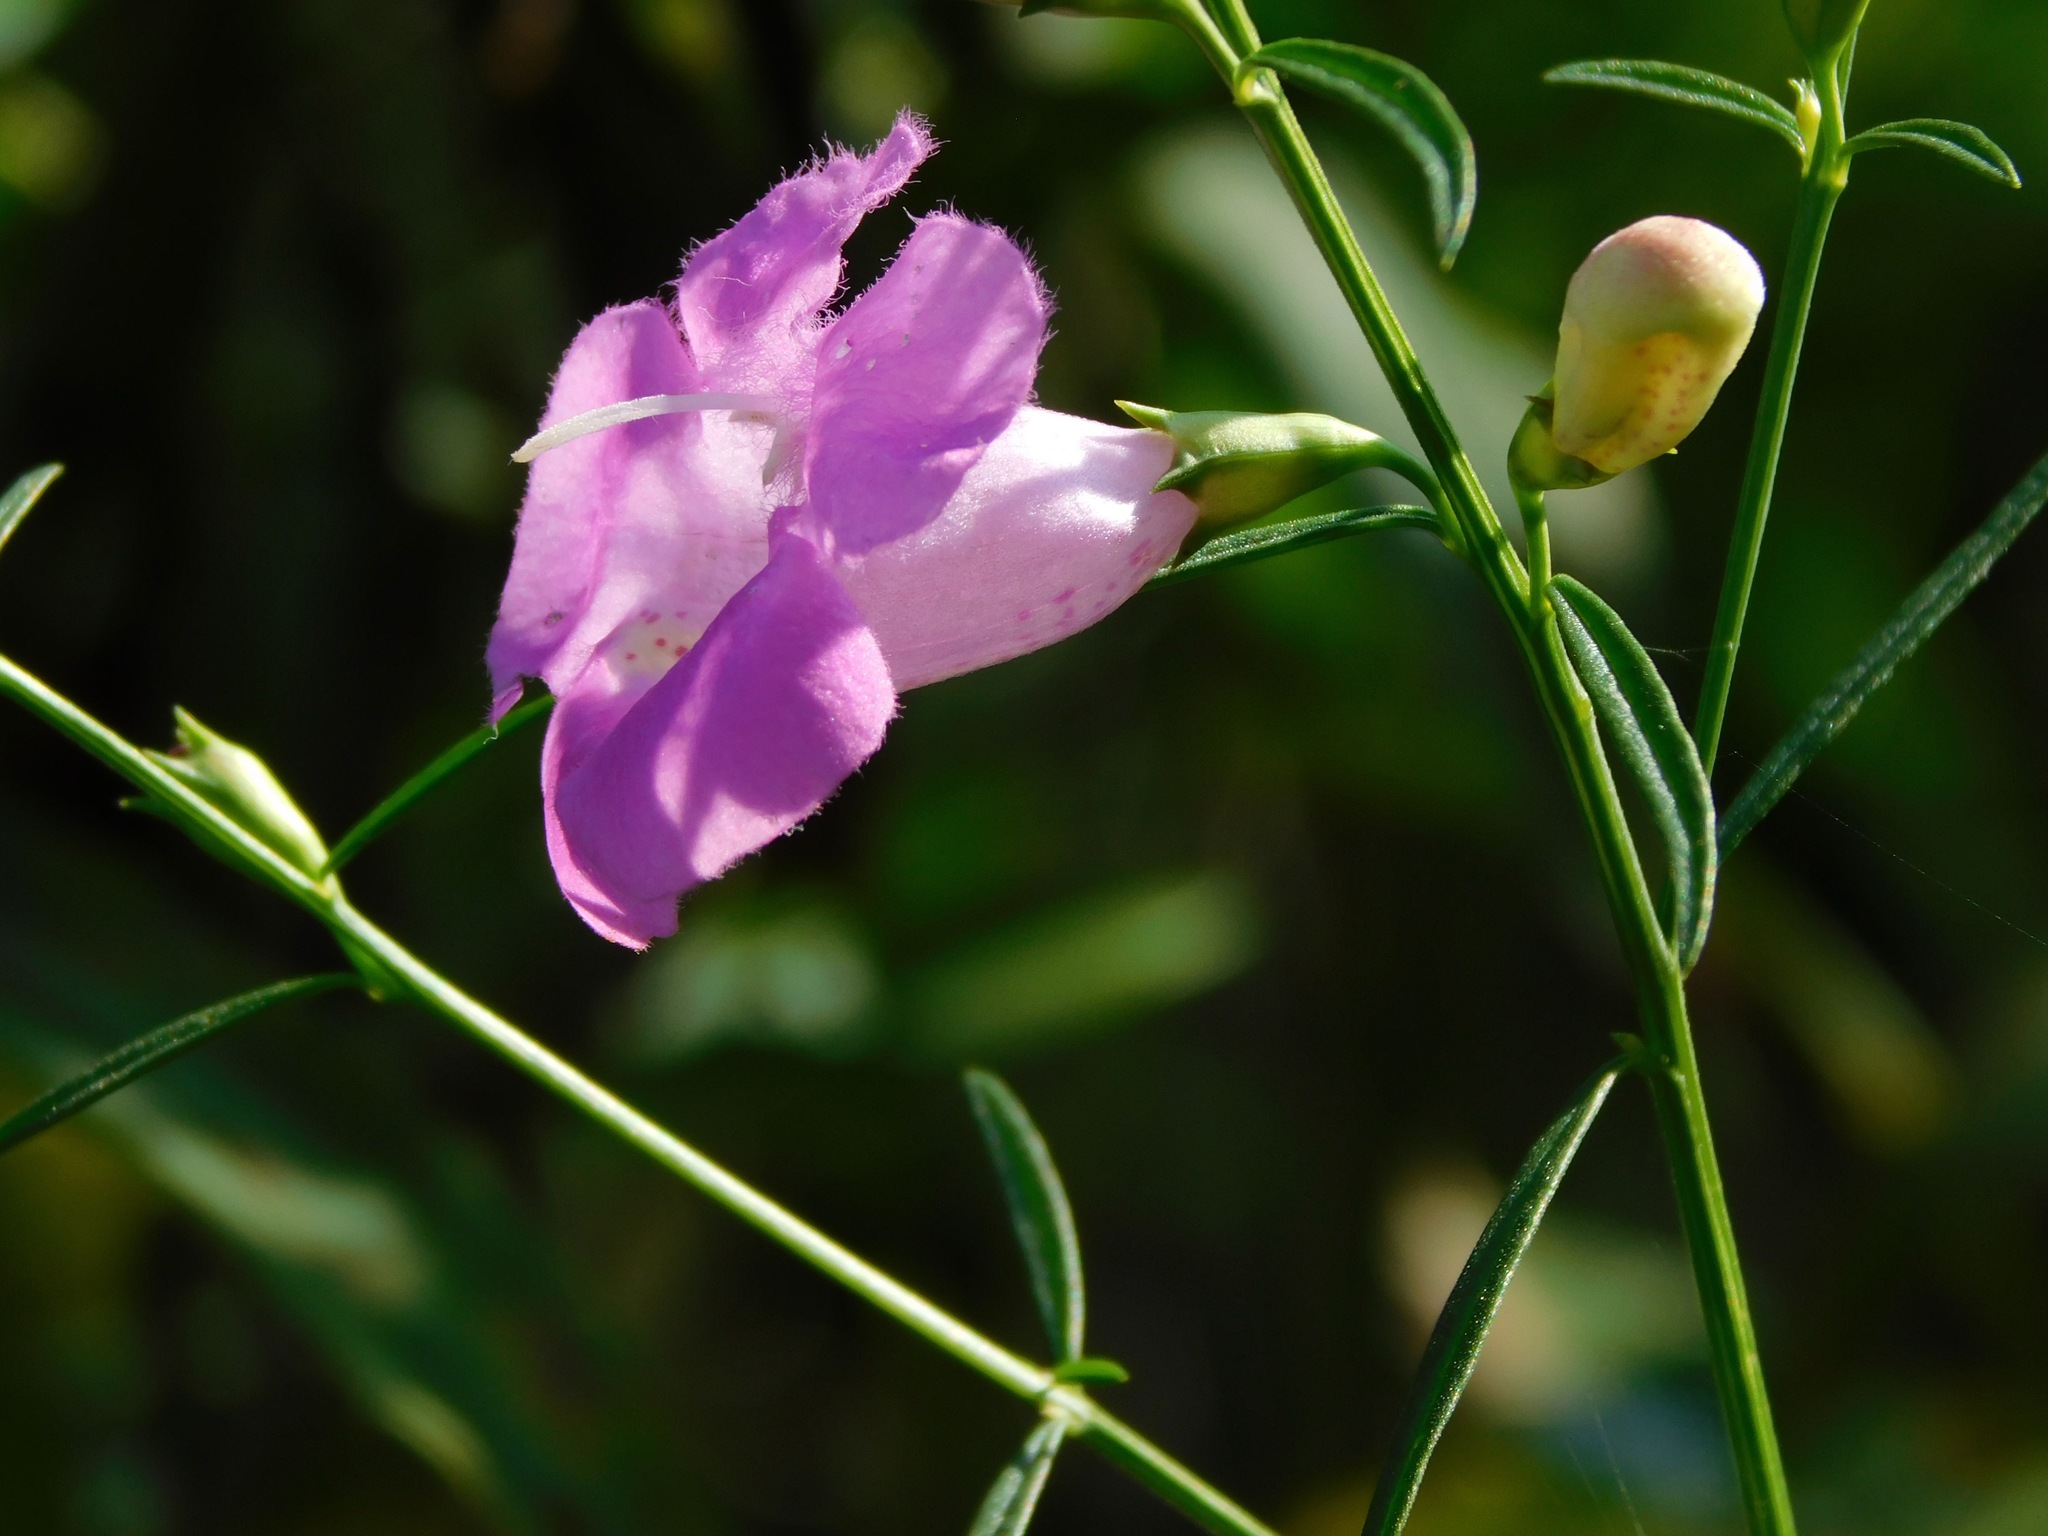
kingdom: Plantae
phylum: Tracheophyta
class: Magnoliopsida
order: Lamiales
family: Orobanchaceae
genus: Agalinis
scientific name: Agalinis fasciculata
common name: Beach false foxglove
